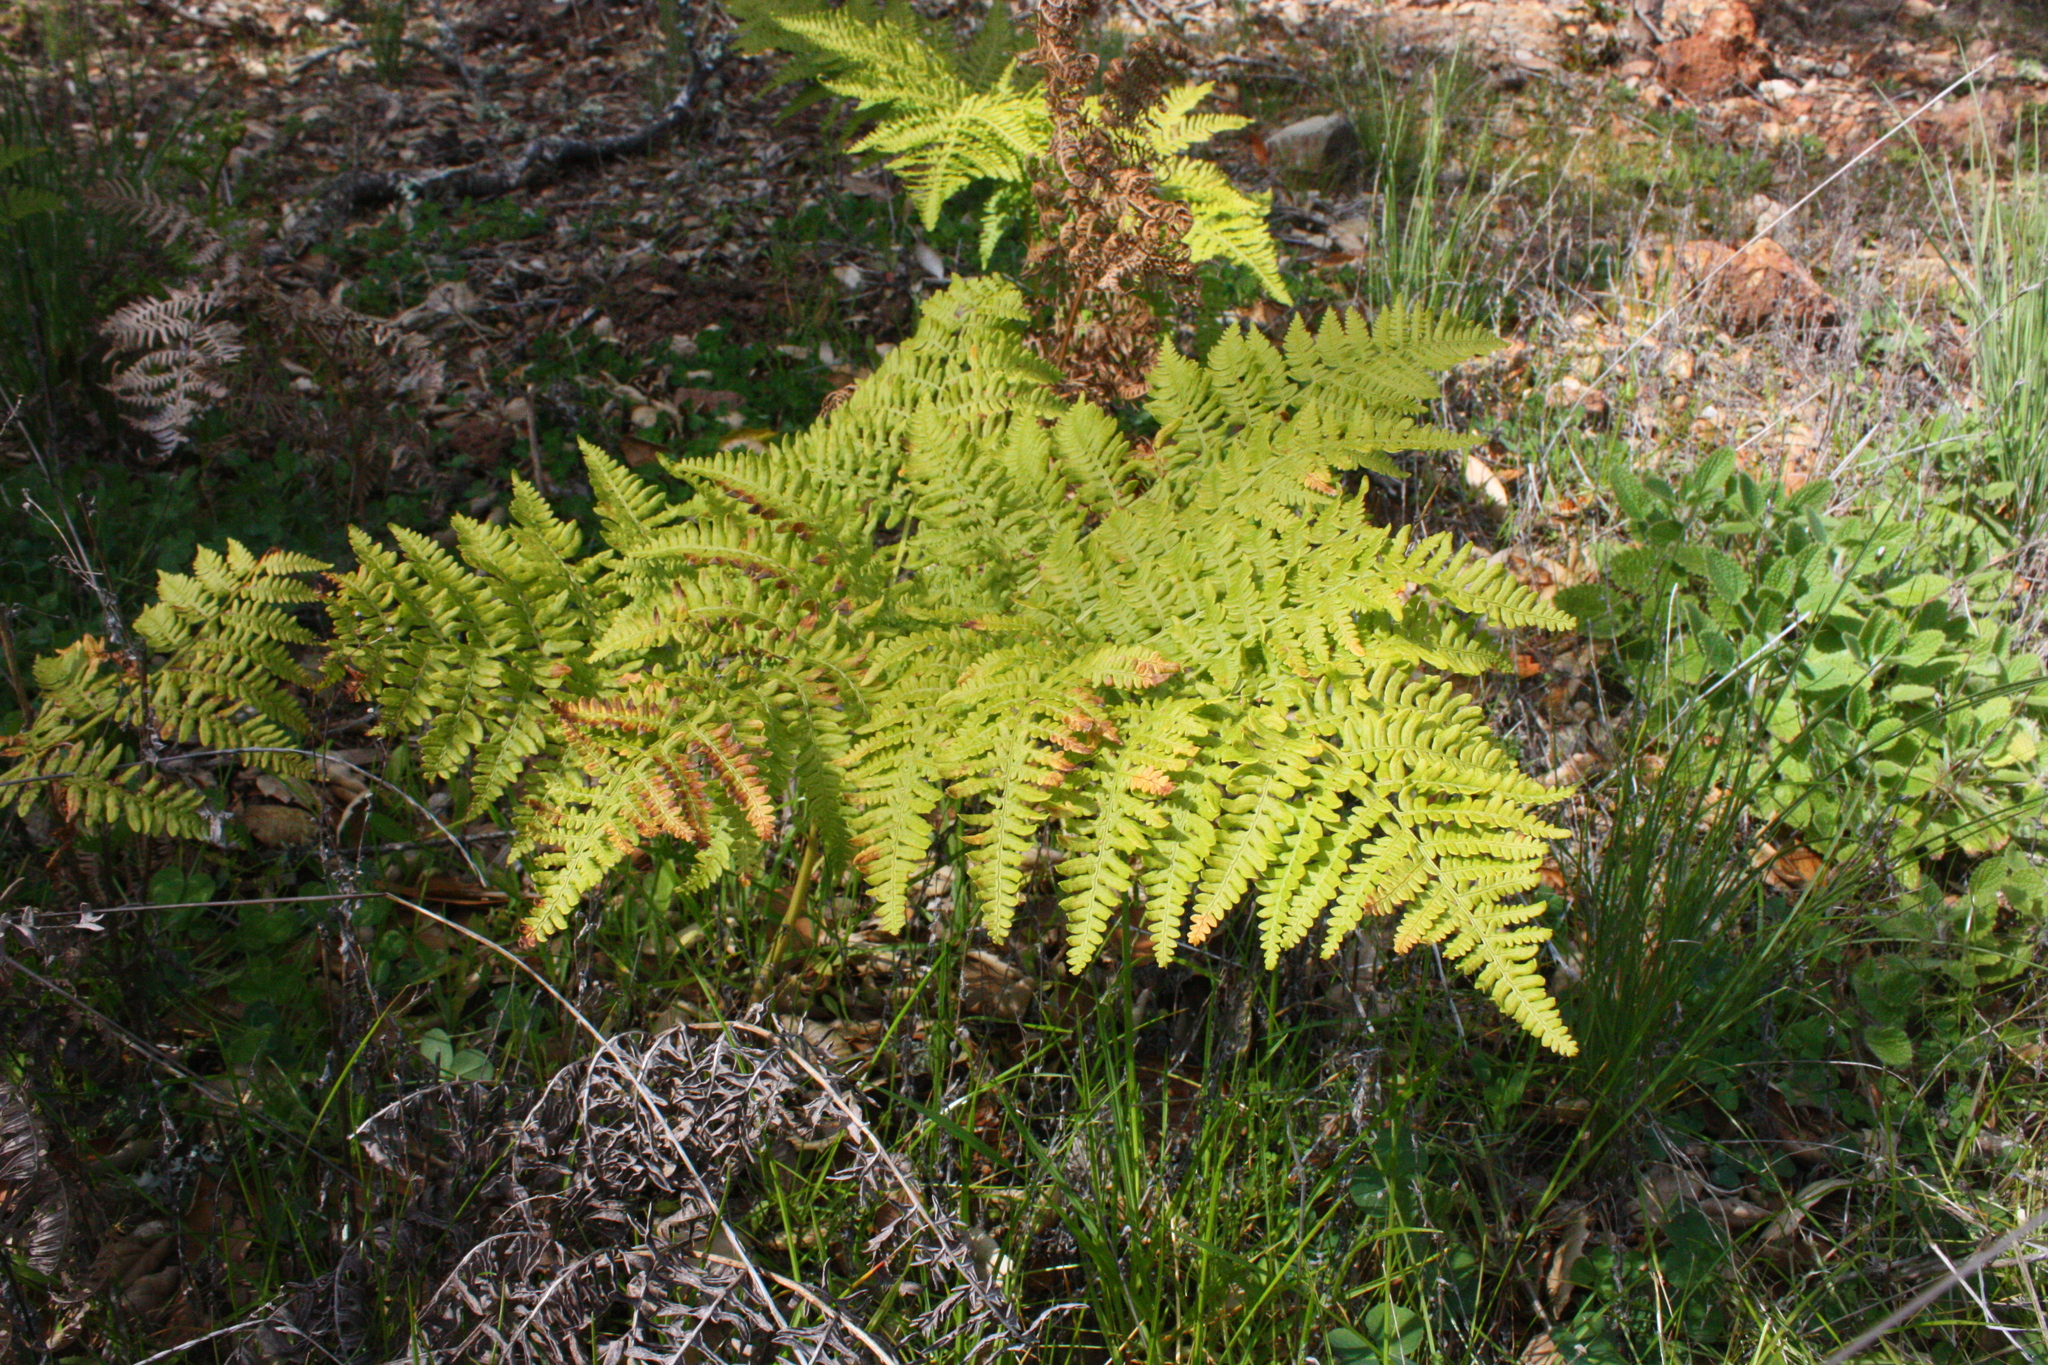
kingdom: Plantae
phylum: Tracheophyta
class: Polypodiopsida
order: Polypodiales
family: Dennstaedtiaceae
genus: Pteridium
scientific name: Pteridium aquilinum
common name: Bracken
